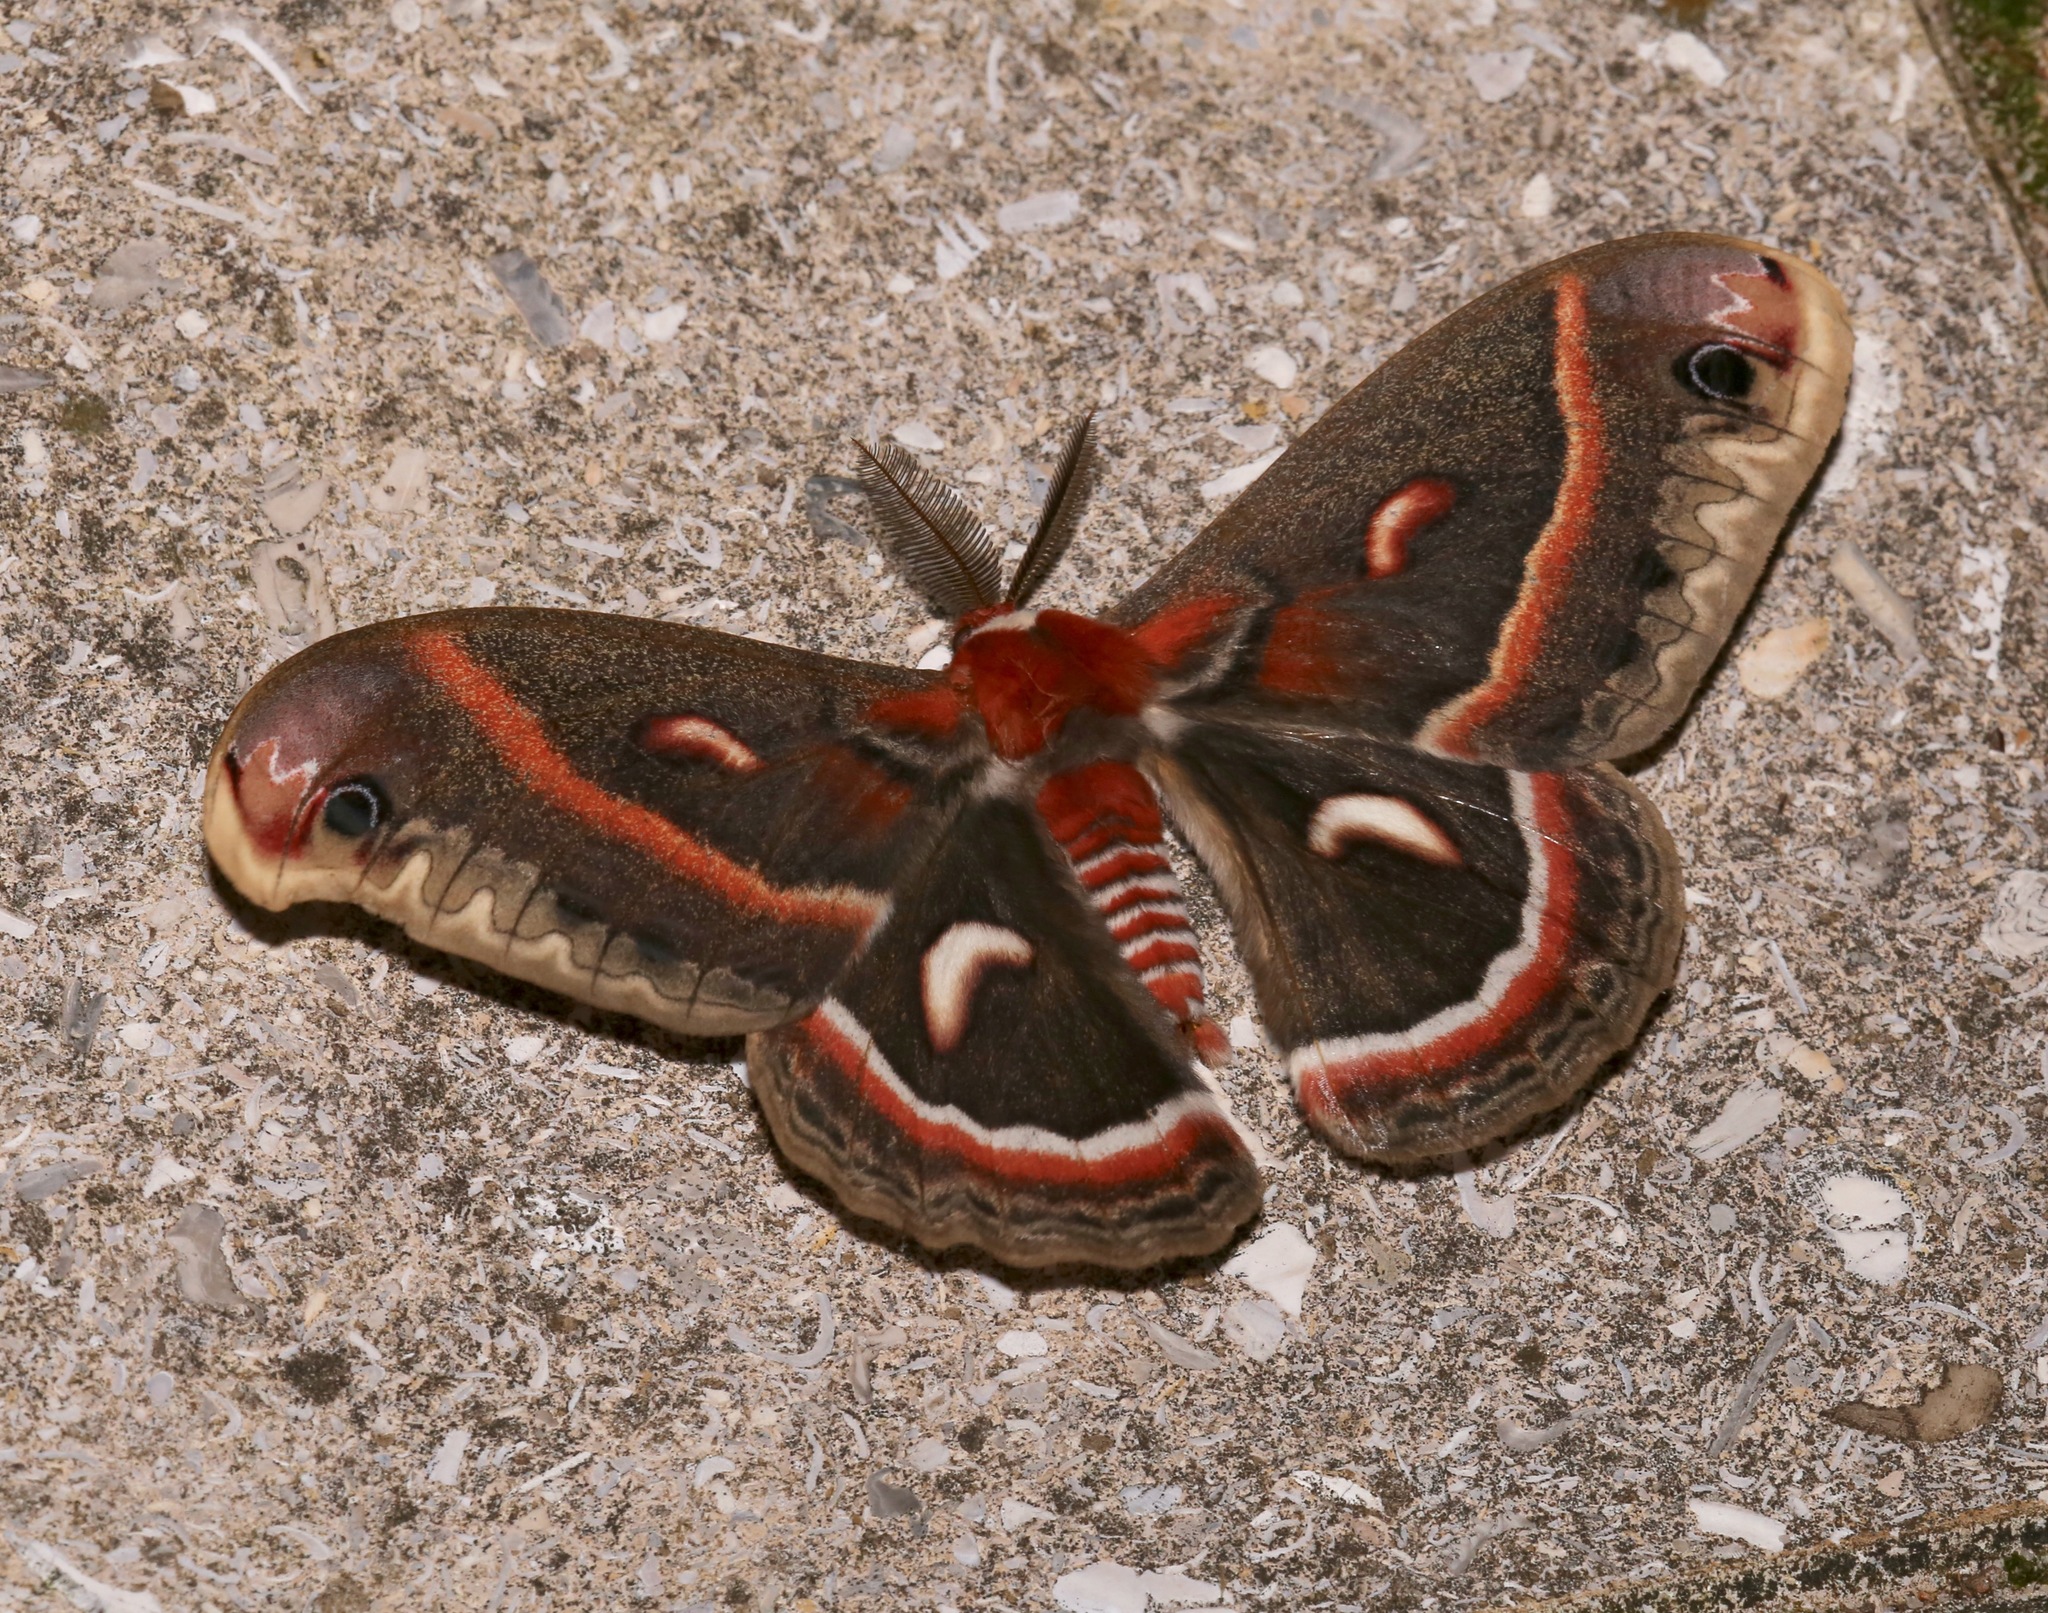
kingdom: Animalia
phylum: Arthropoda
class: Insecta
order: Lepidoptera
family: Saturniidae
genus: Hyalophora
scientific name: Hyalophora cecropia
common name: Cecropia silkmoth
